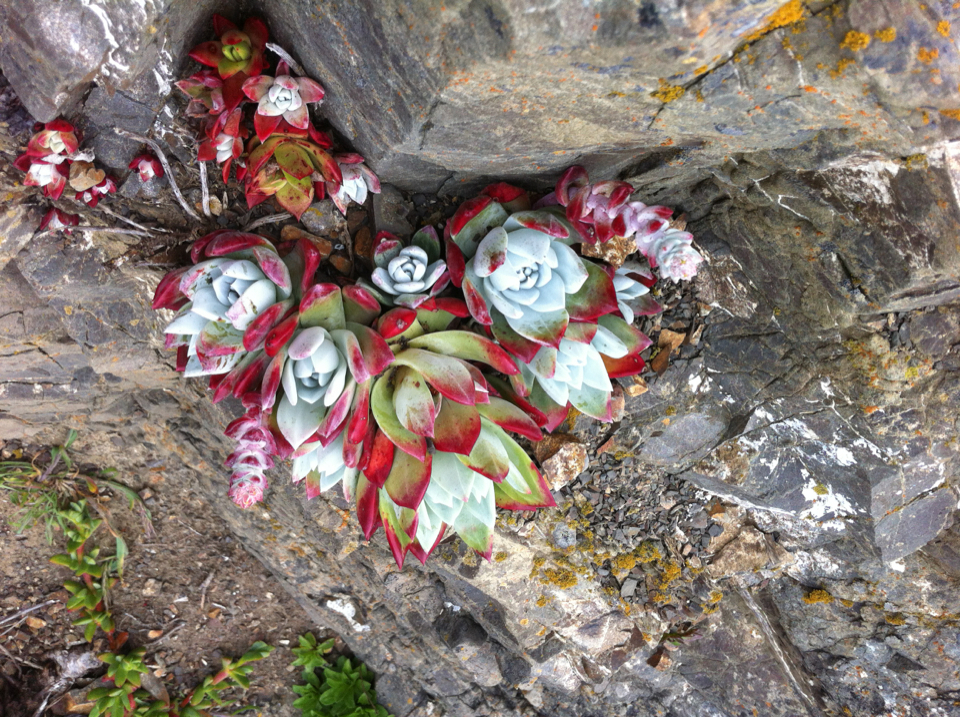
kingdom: Plantae
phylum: Tracheophyta
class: Magnoliopsida
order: Saxifragales
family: Crassulaceae
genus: Dudleya
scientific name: Dudleya farinosa
